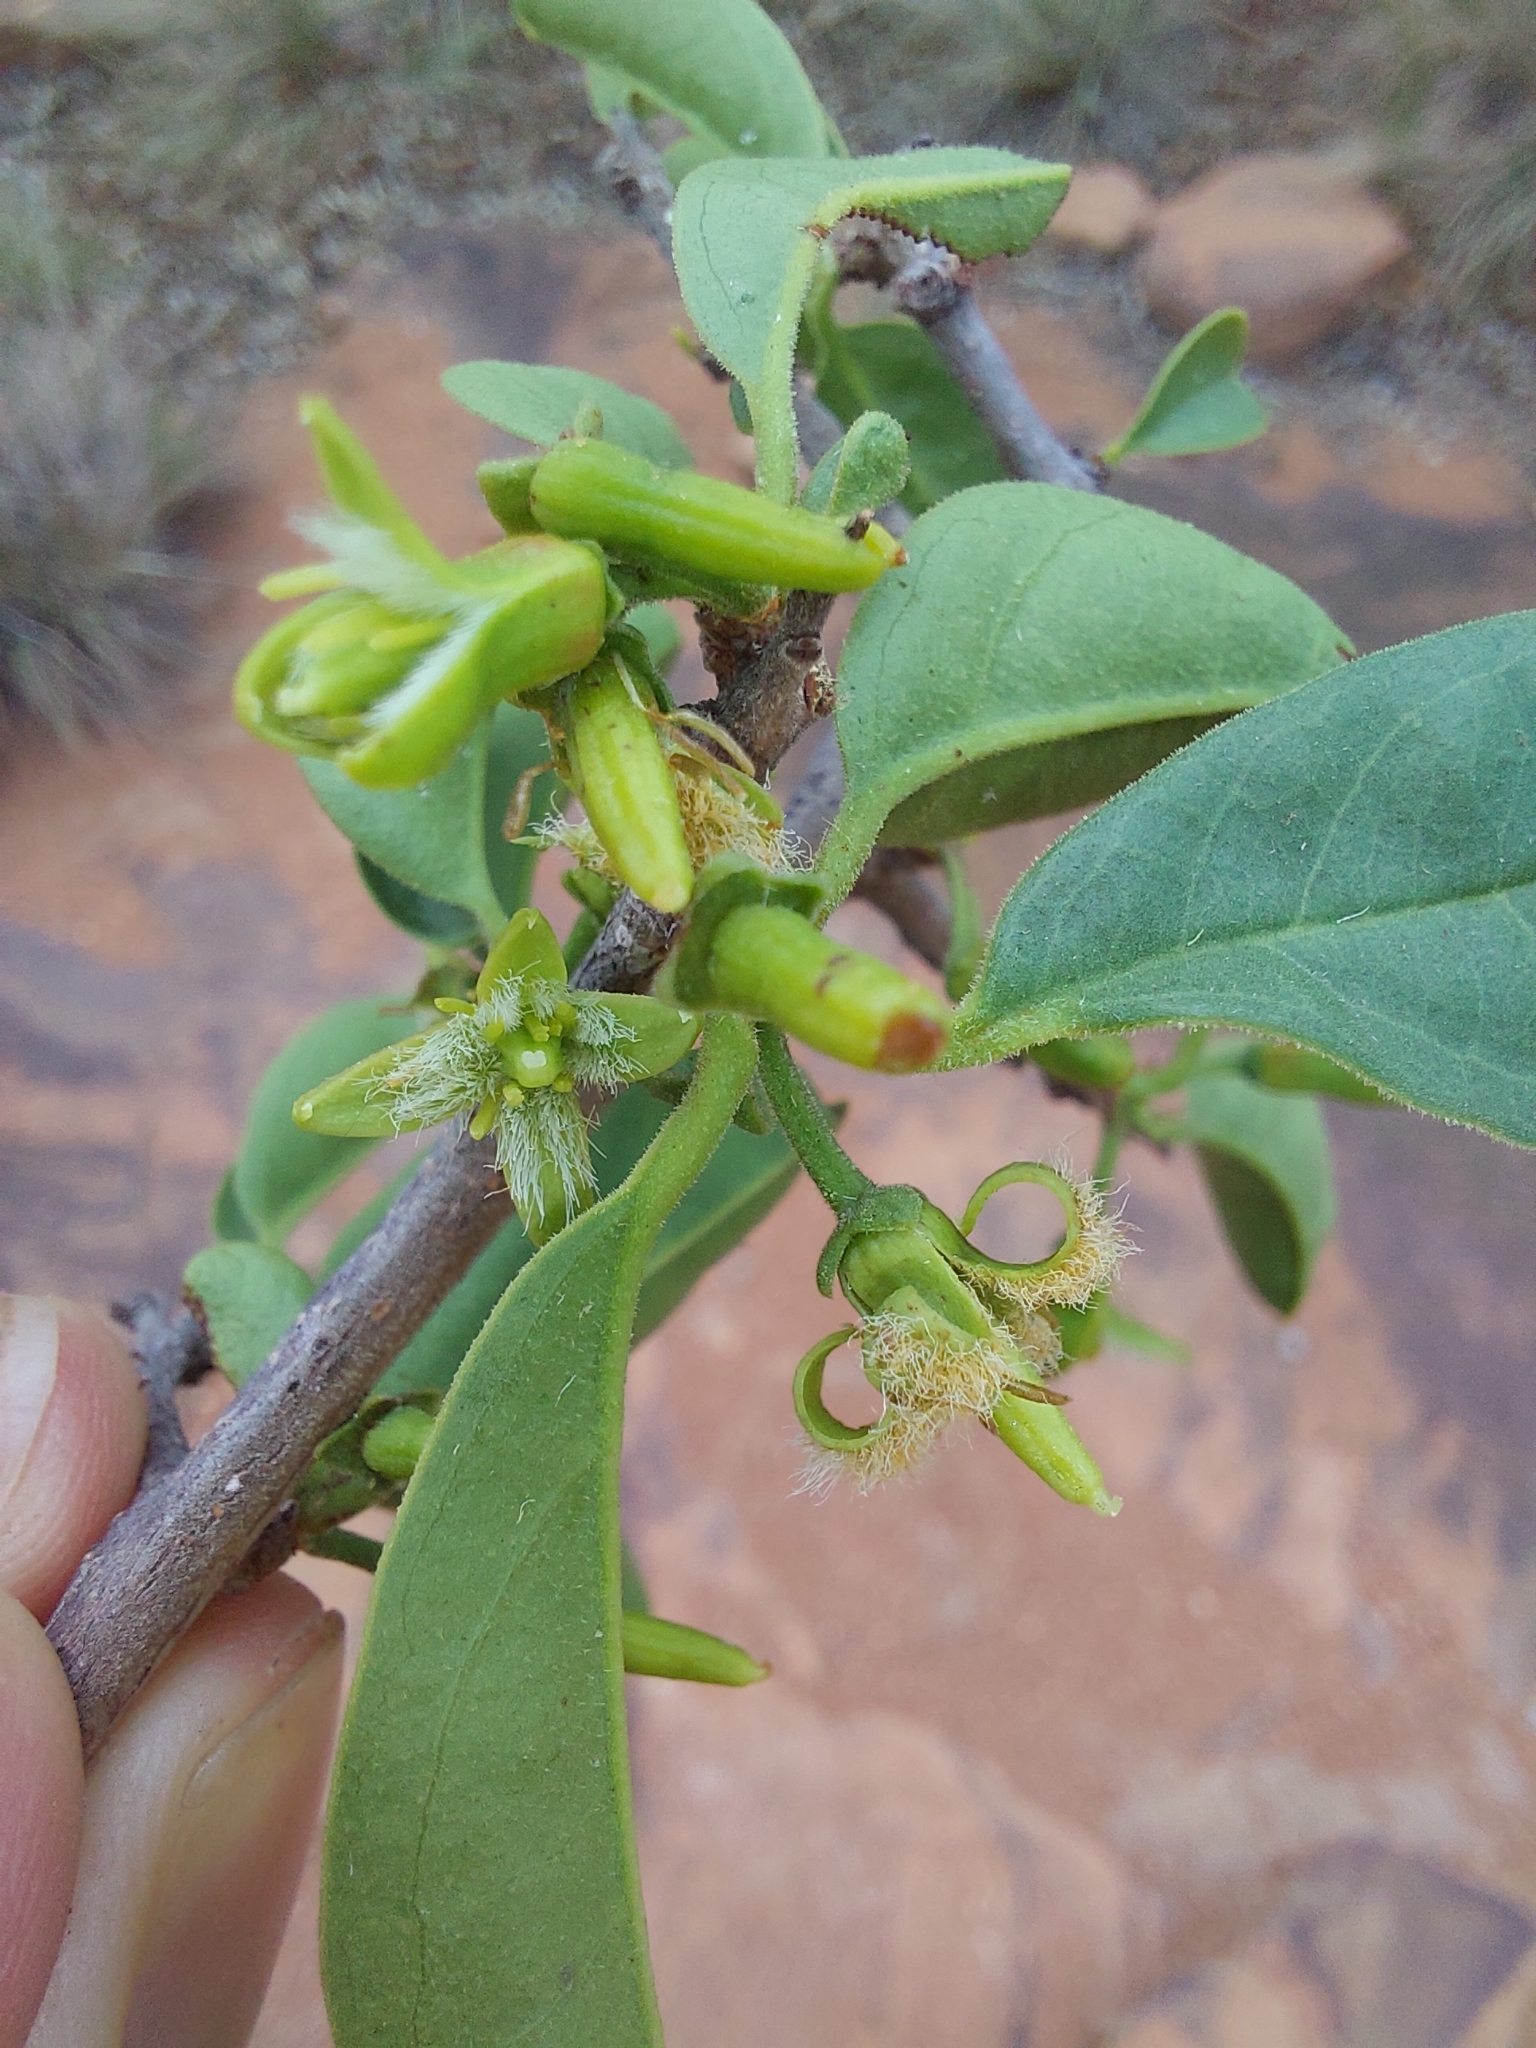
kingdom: Plantae
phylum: Tracheophyta
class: Magnoliopsida
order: Santalales
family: Ximeniaceae
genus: Ximenia
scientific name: Ximenia caffra
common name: Large sourplum
